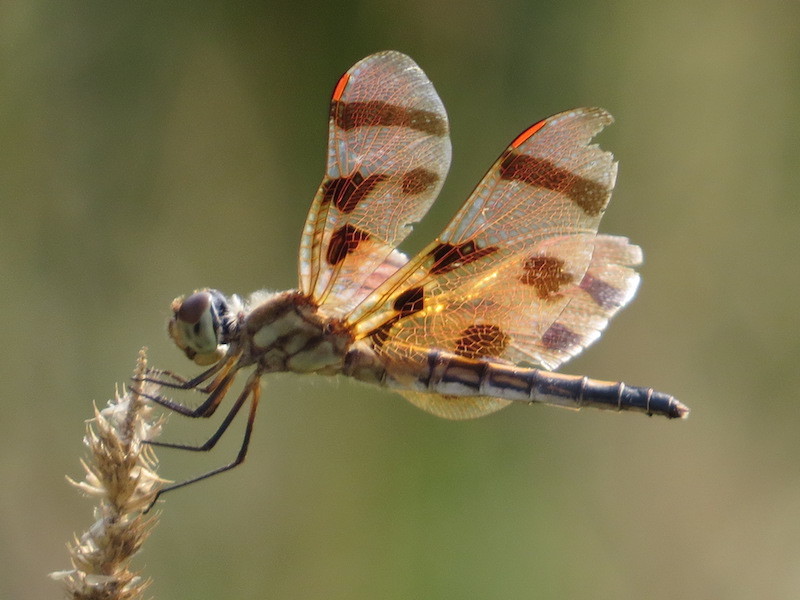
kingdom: Animalia
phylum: Arthropoda
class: Insecta
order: Odonata
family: Libellulidae
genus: Celithemis
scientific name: Celithemis eponina
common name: Halloween pennant
